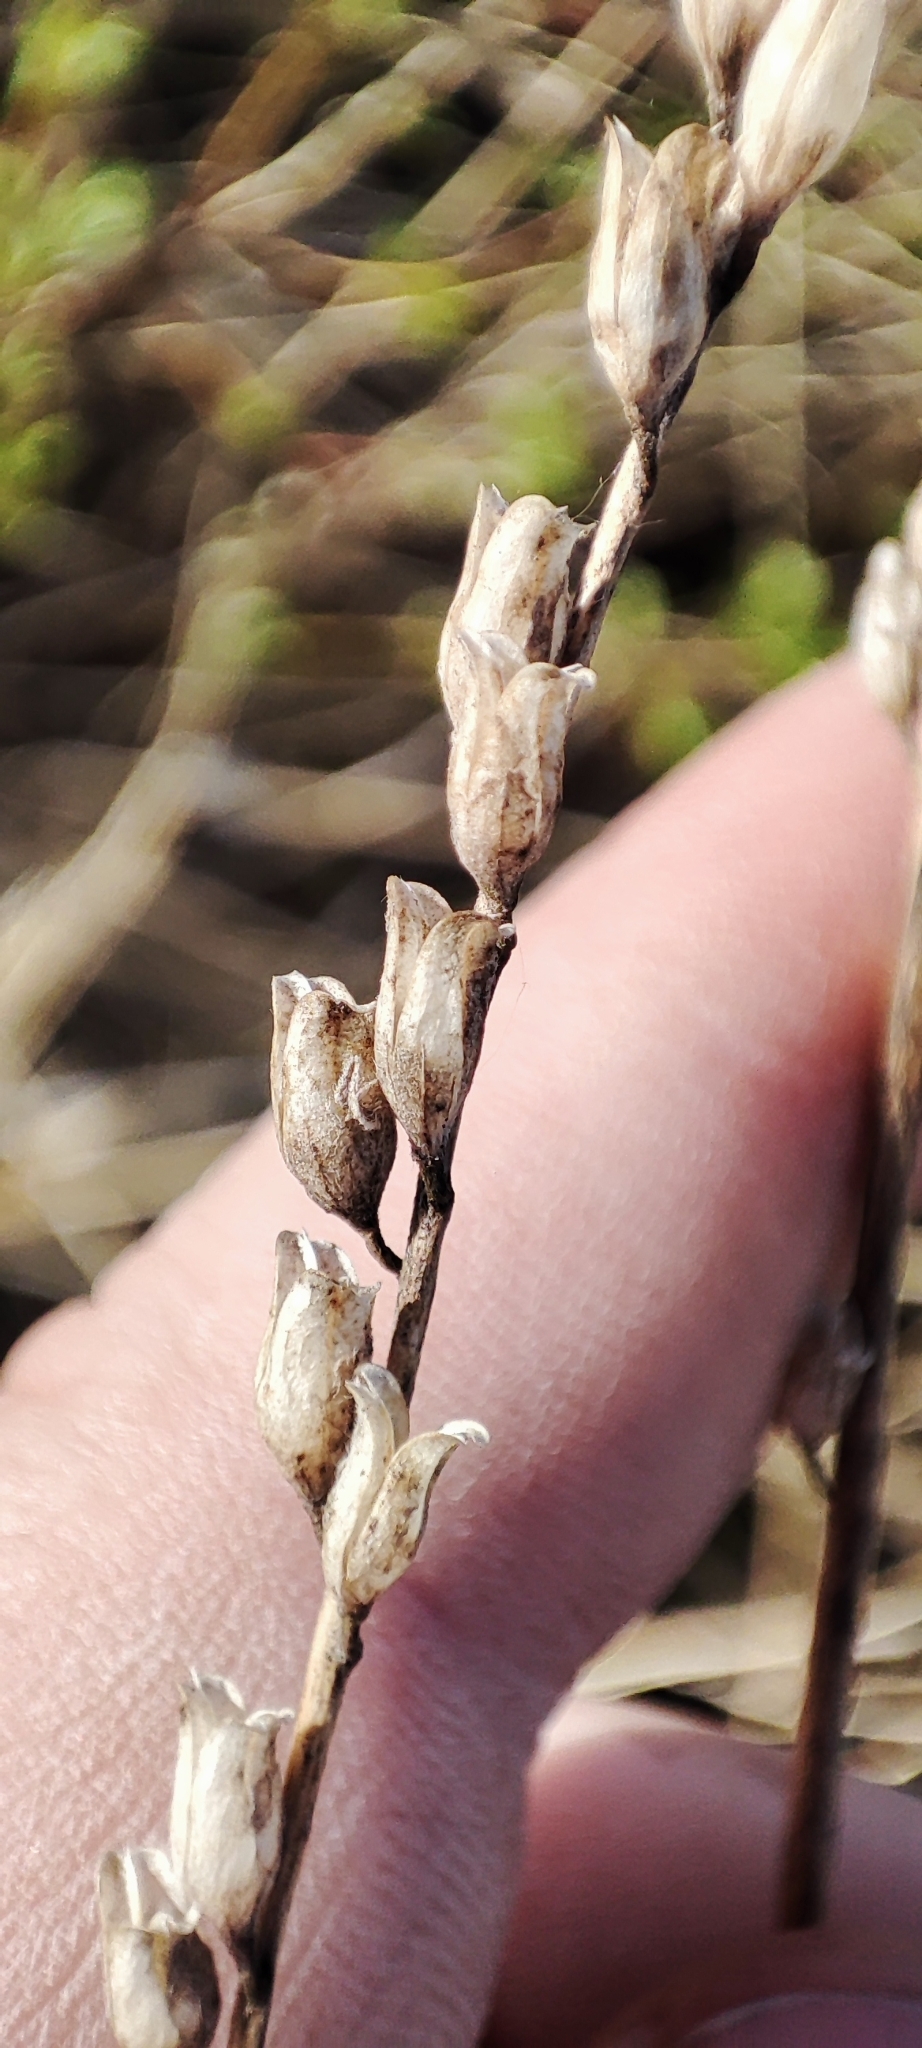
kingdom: Plantae
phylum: Tracheophyta
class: Magnoliopsida
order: Lamiales
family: Orobanchaceae
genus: Odontites
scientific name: Odontites vulgaris
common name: Broomrape
